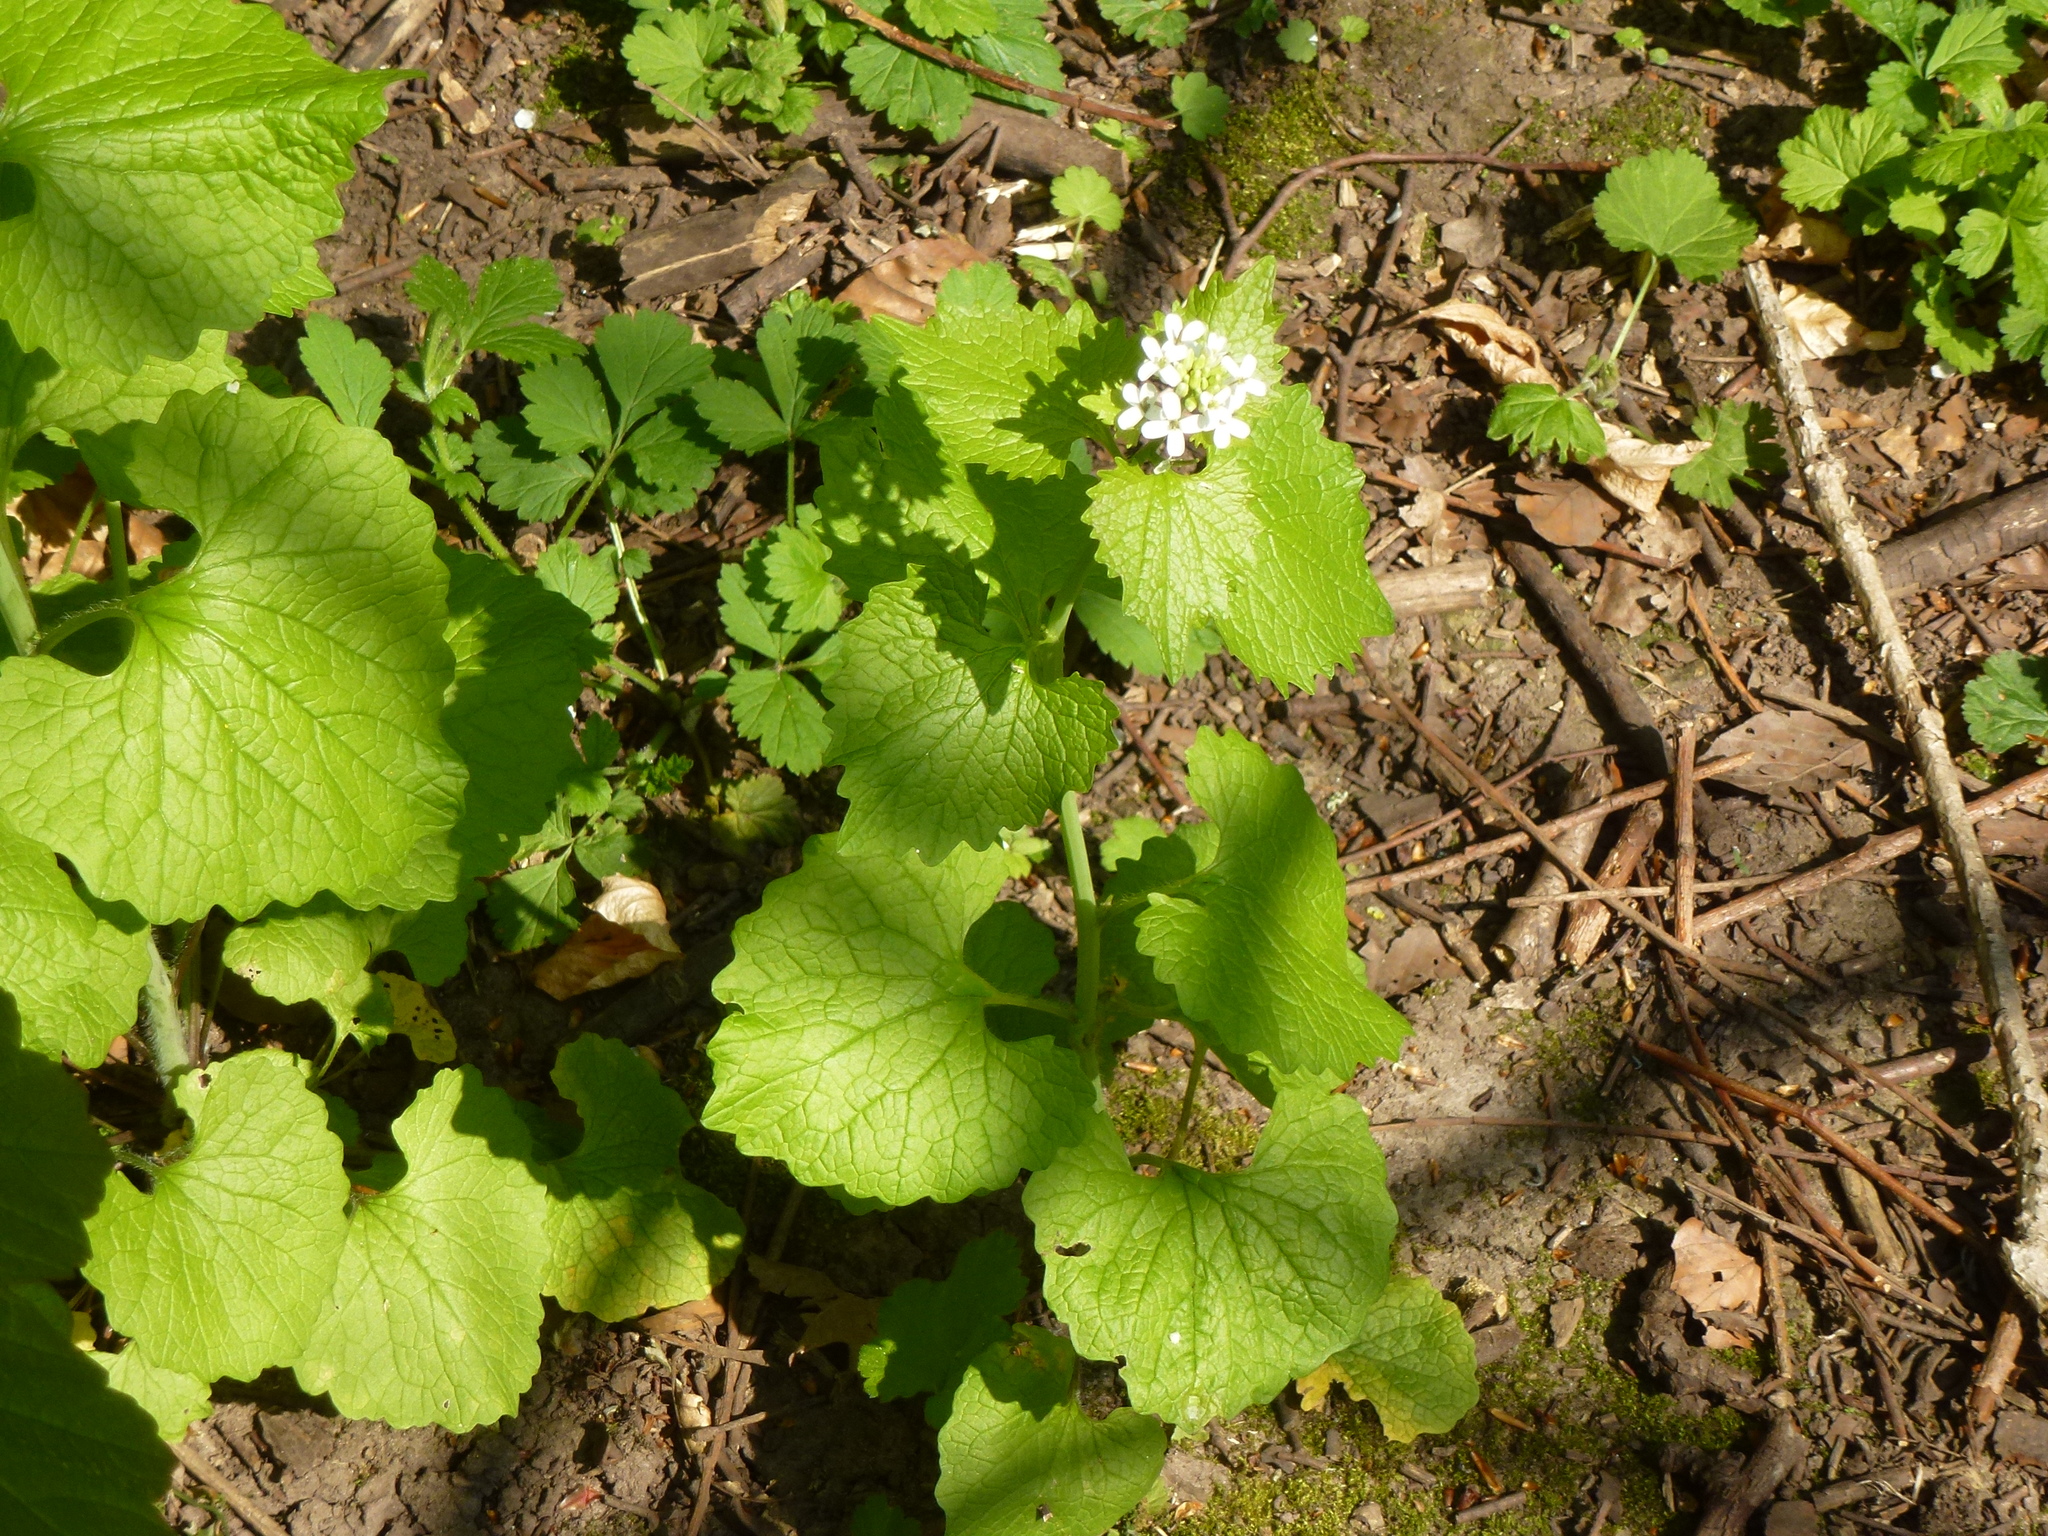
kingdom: Plantae
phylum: Tracheophyta
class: Magnoliopsida
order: Brassicales
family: Brassicaceae
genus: Alliaria
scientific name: Alliaria petiolata
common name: Garlic mustard
